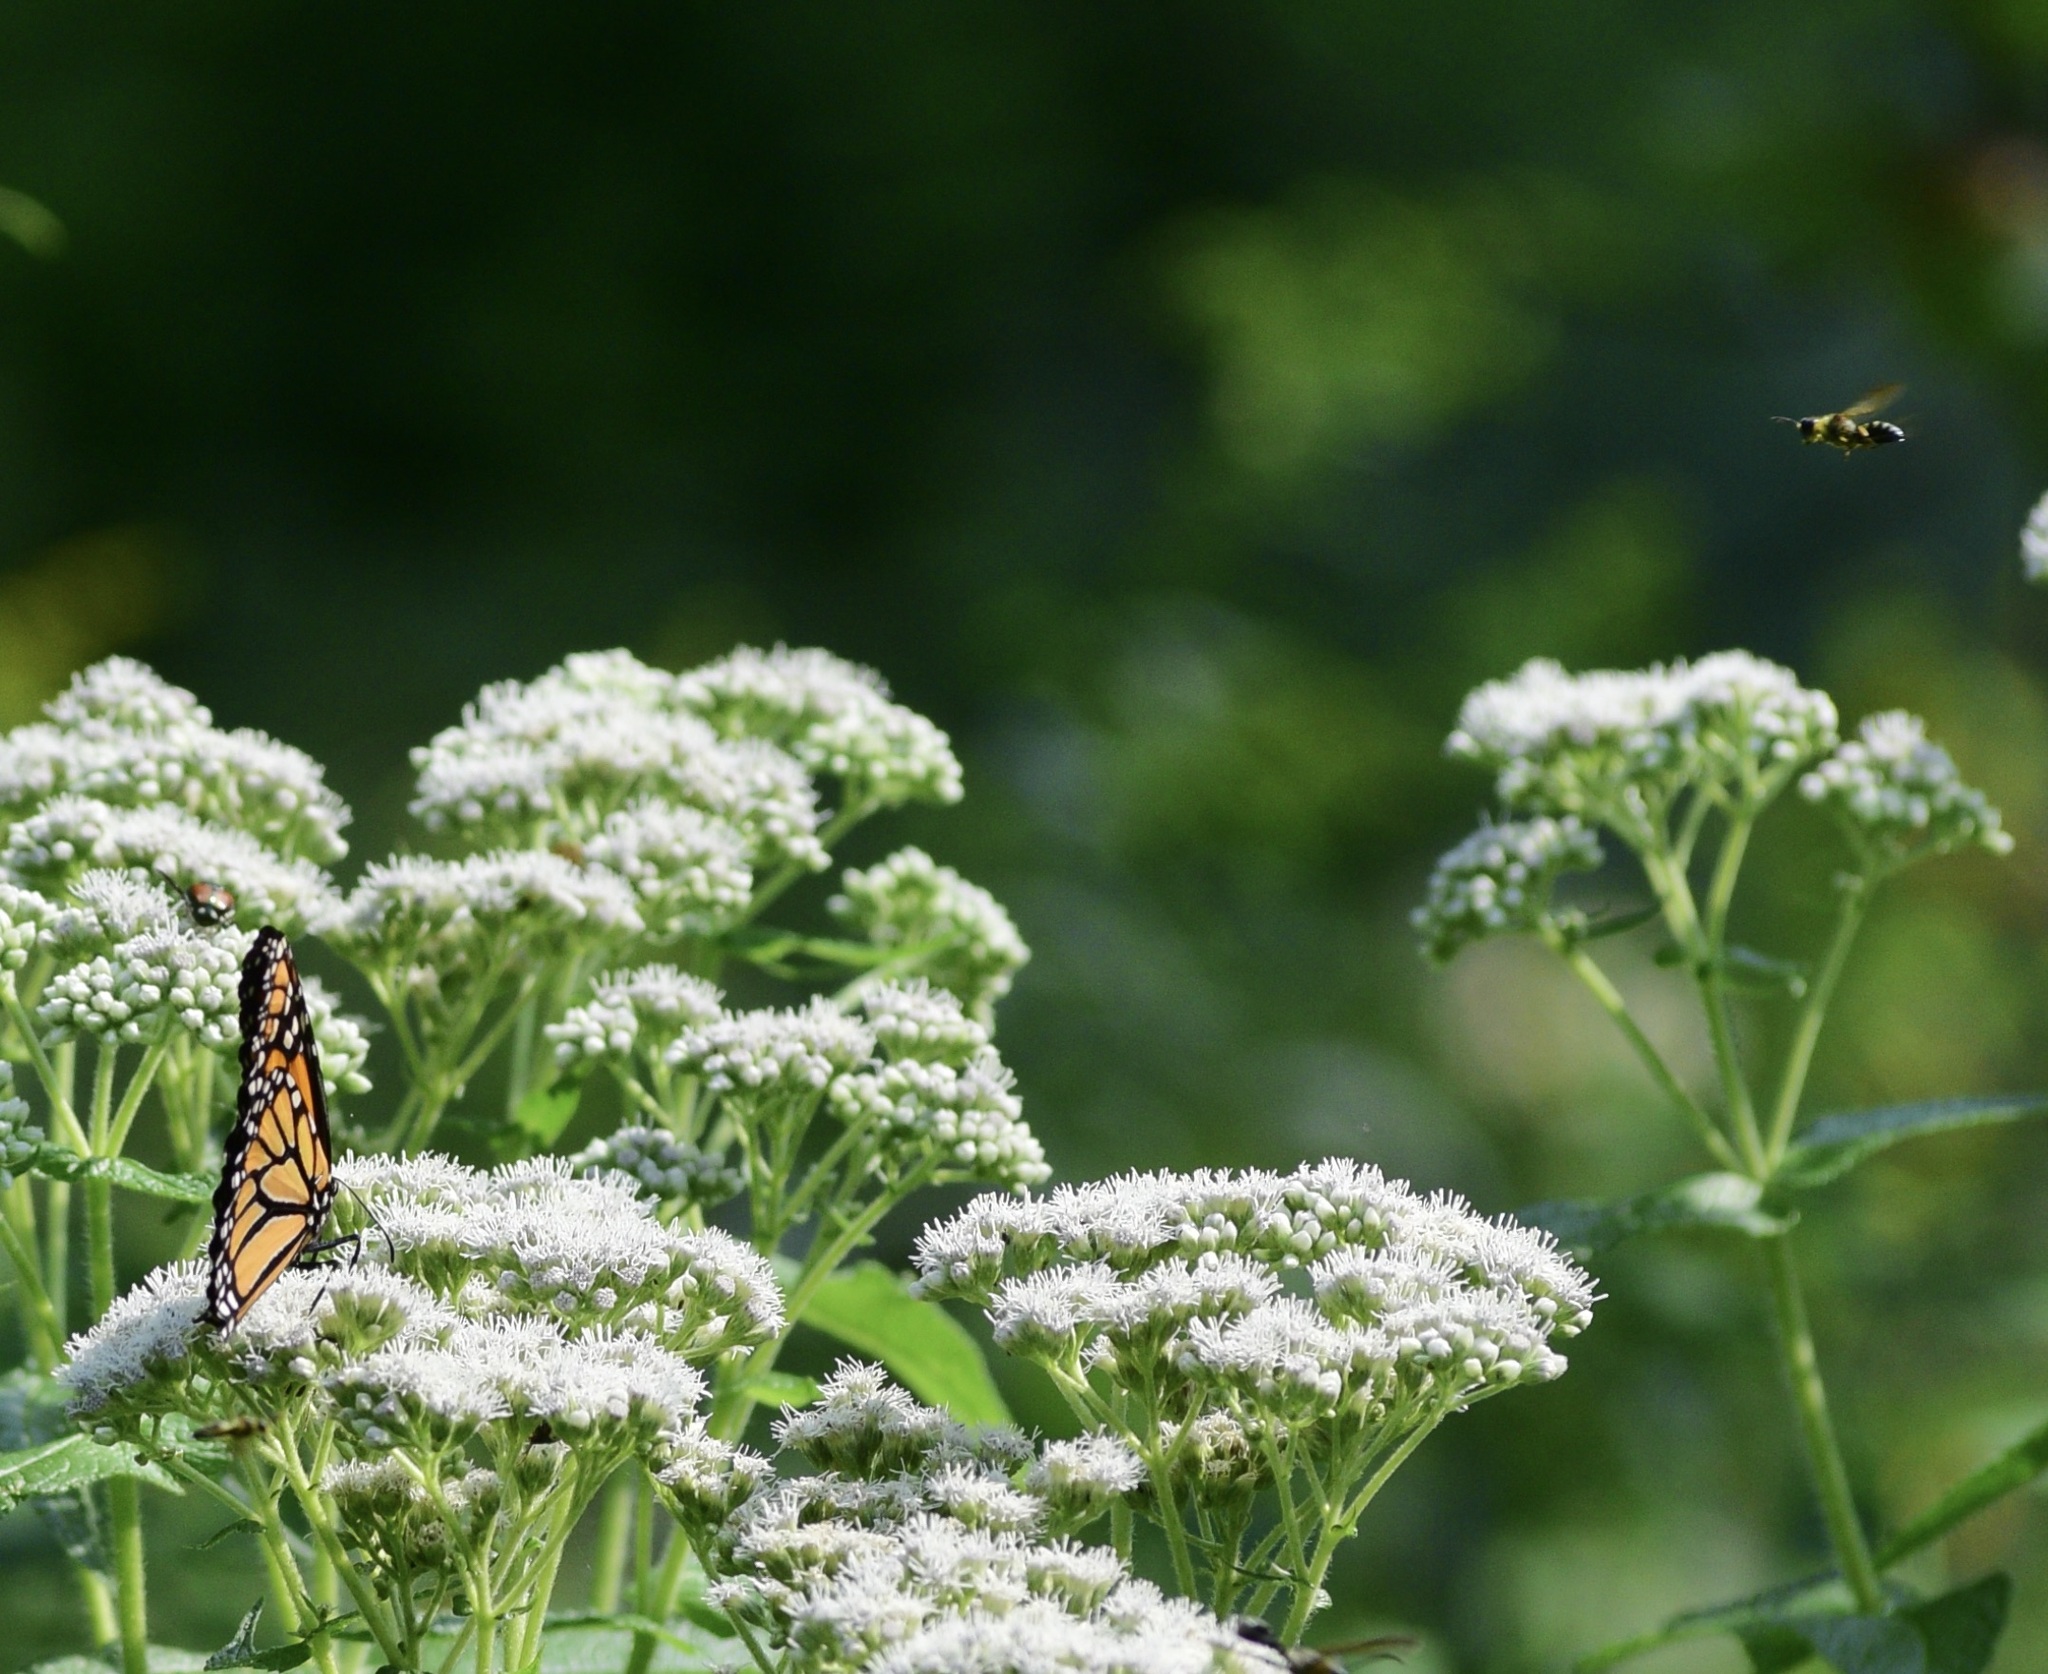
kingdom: Animalia
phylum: Arthropoda
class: Insecta
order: Lepidoptera
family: Nymphalidae
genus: Danaus
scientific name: Danaus plexippus
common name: Monarch
